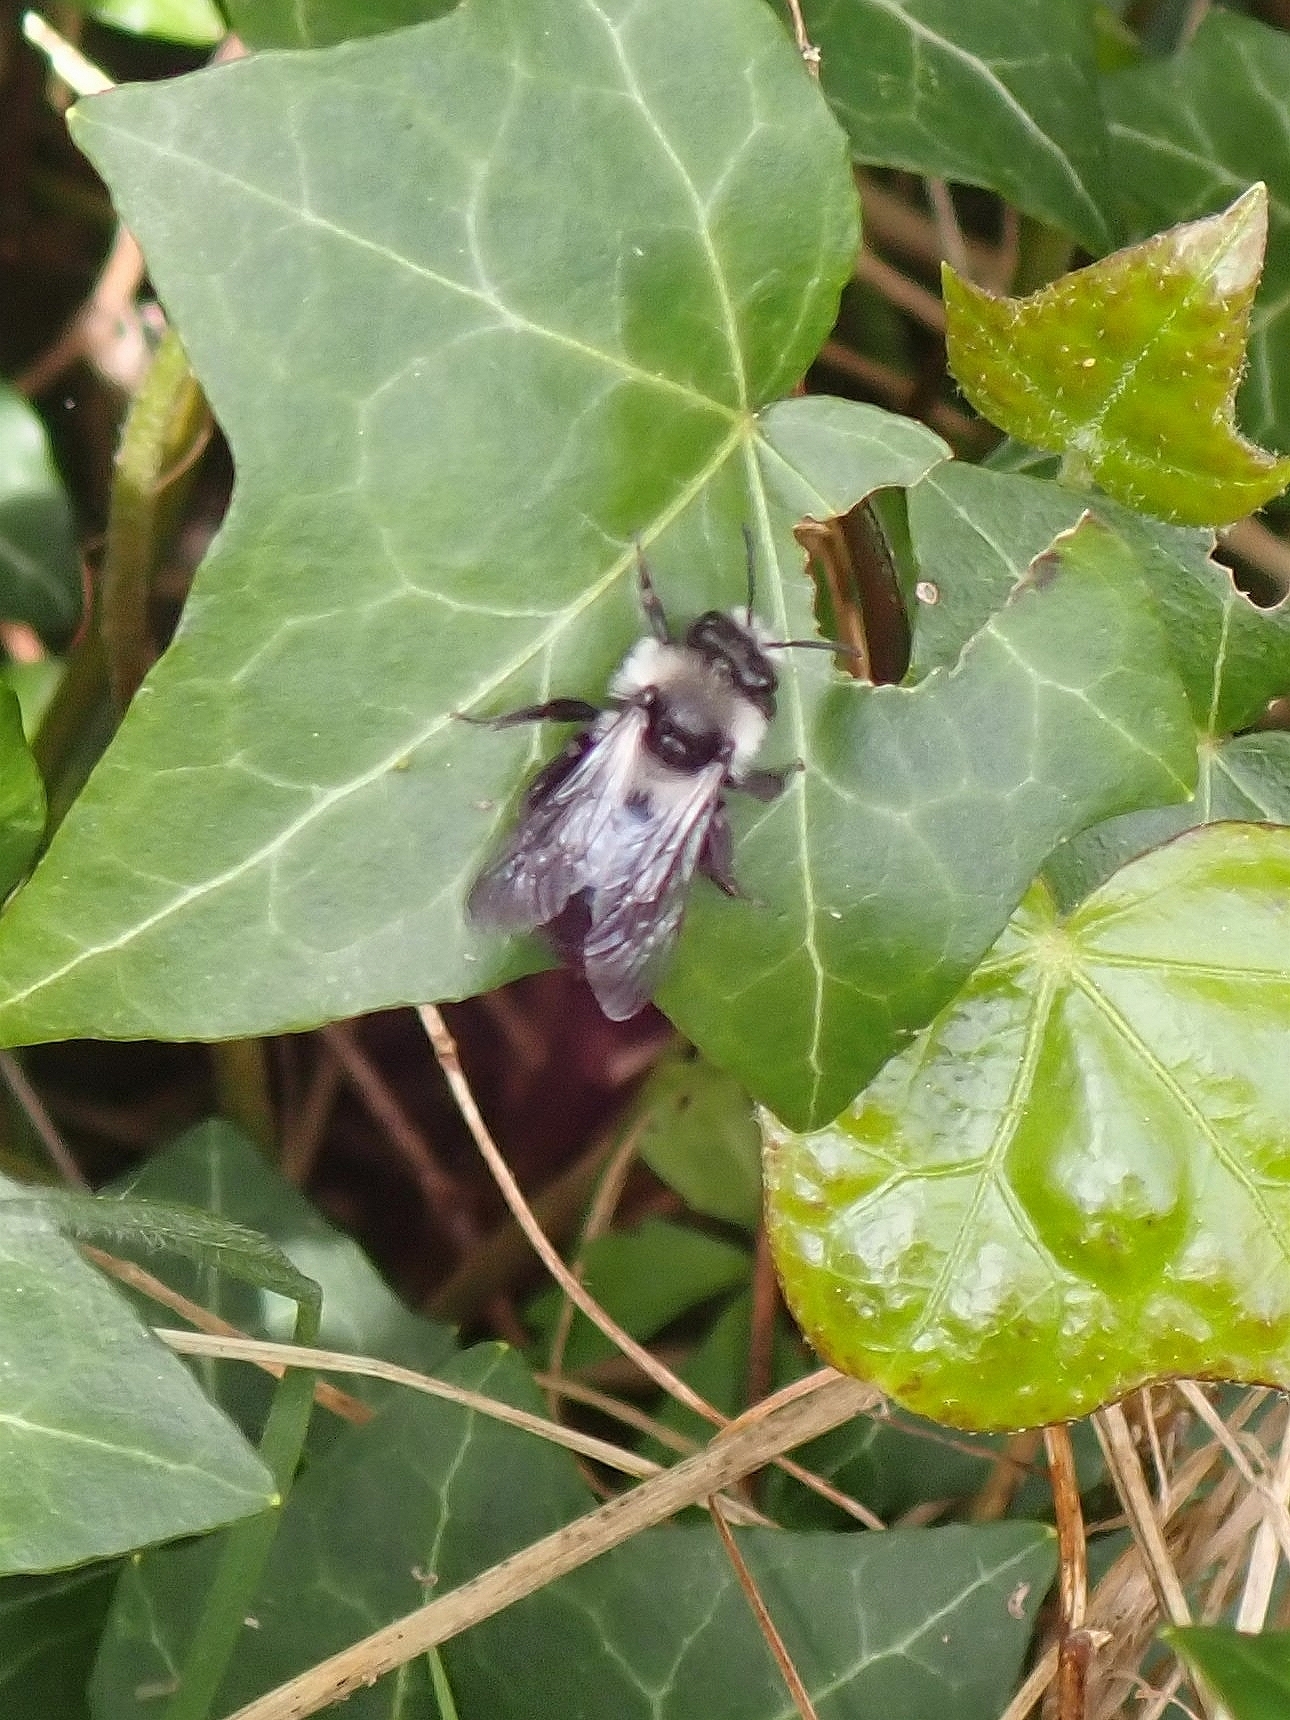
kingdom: Animalia
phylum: Arthropoda
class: Insecta
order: Hymenoptera
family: Andrenidae
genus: Andrena
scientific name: Andrena cineraria
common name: Ashy mining bee
